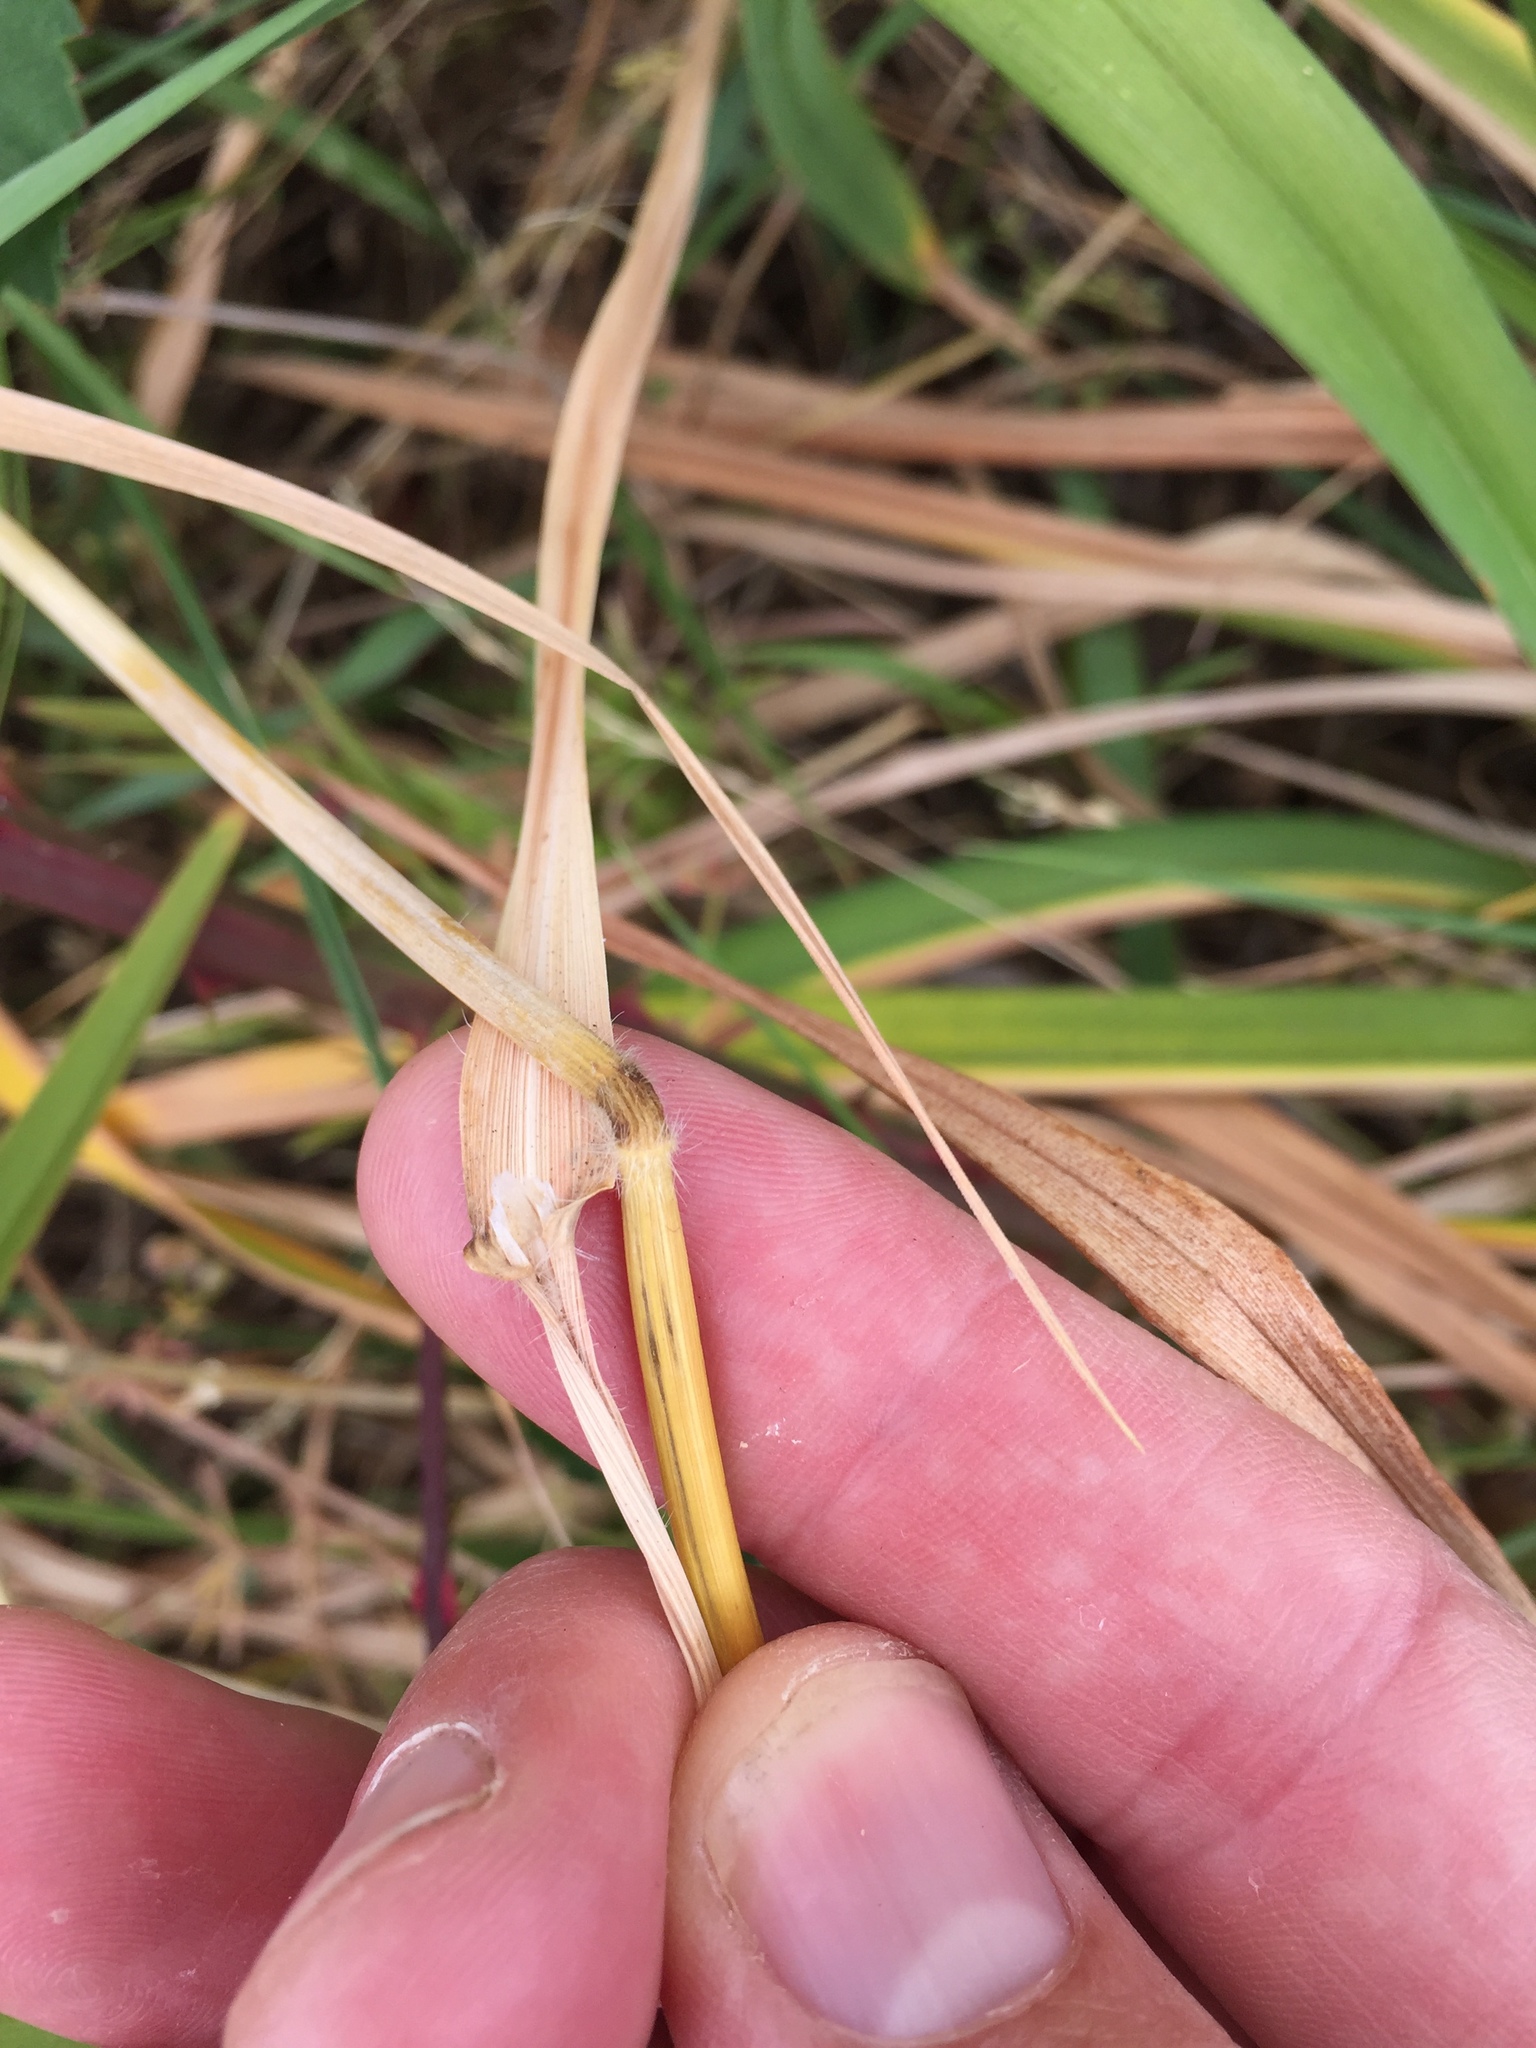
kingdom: Plantae
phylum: Tracheophyta
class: Liliopsida
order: Poales
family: Poaceae
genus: Avena
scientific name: Avena sterilis
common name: Animated oat
